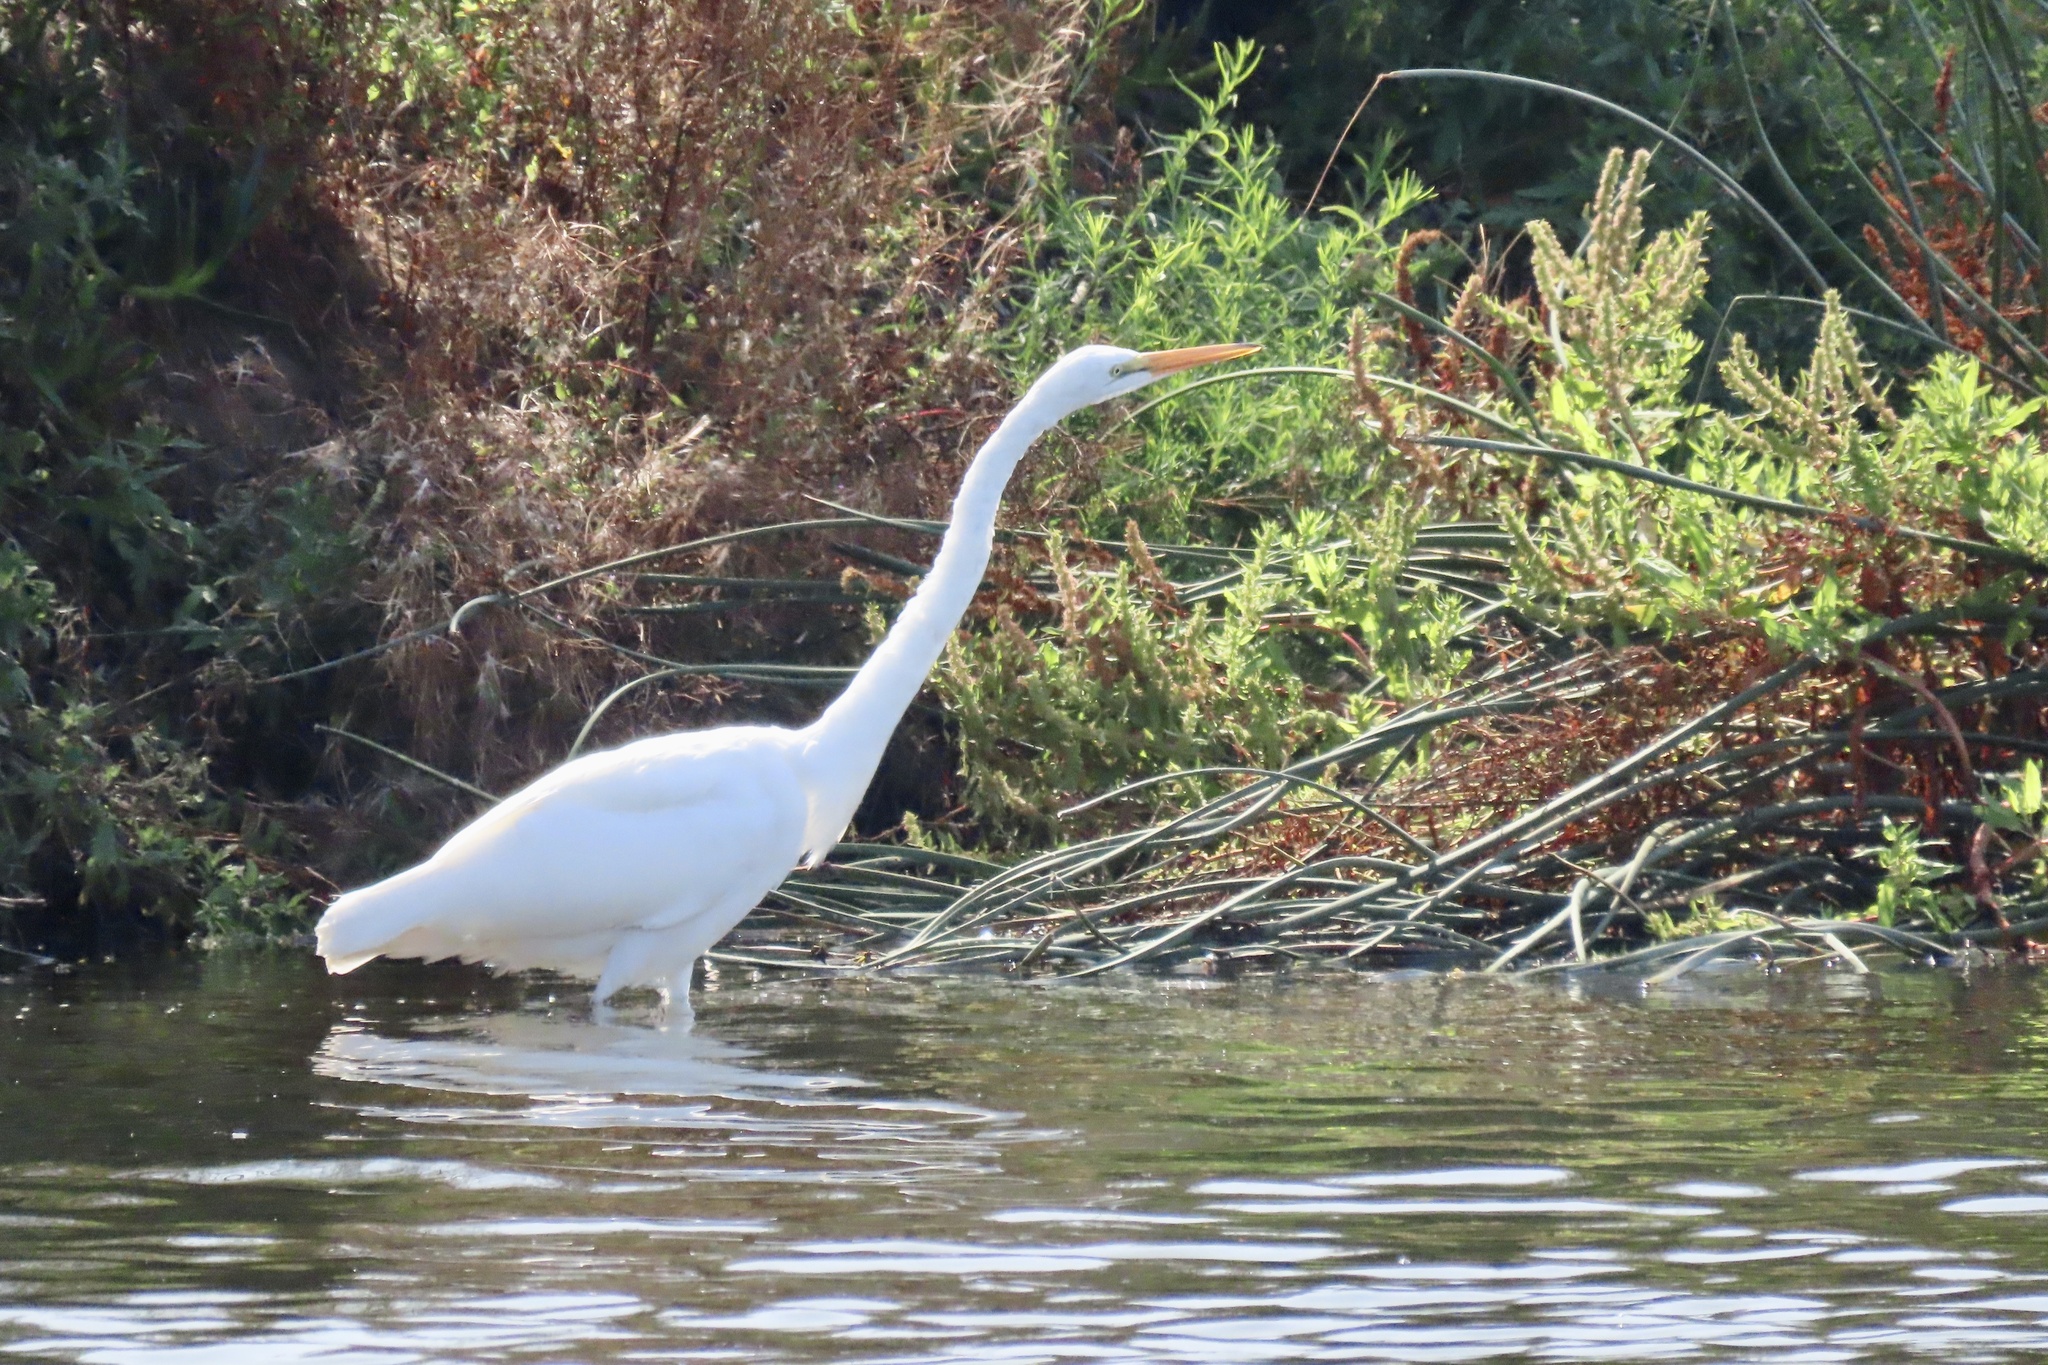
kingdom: Animalia
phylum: Chordata
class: Aves
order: Pelecaniformes
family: Ardeidae
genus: Ardea
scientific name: Ardea alba
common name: Great egret
